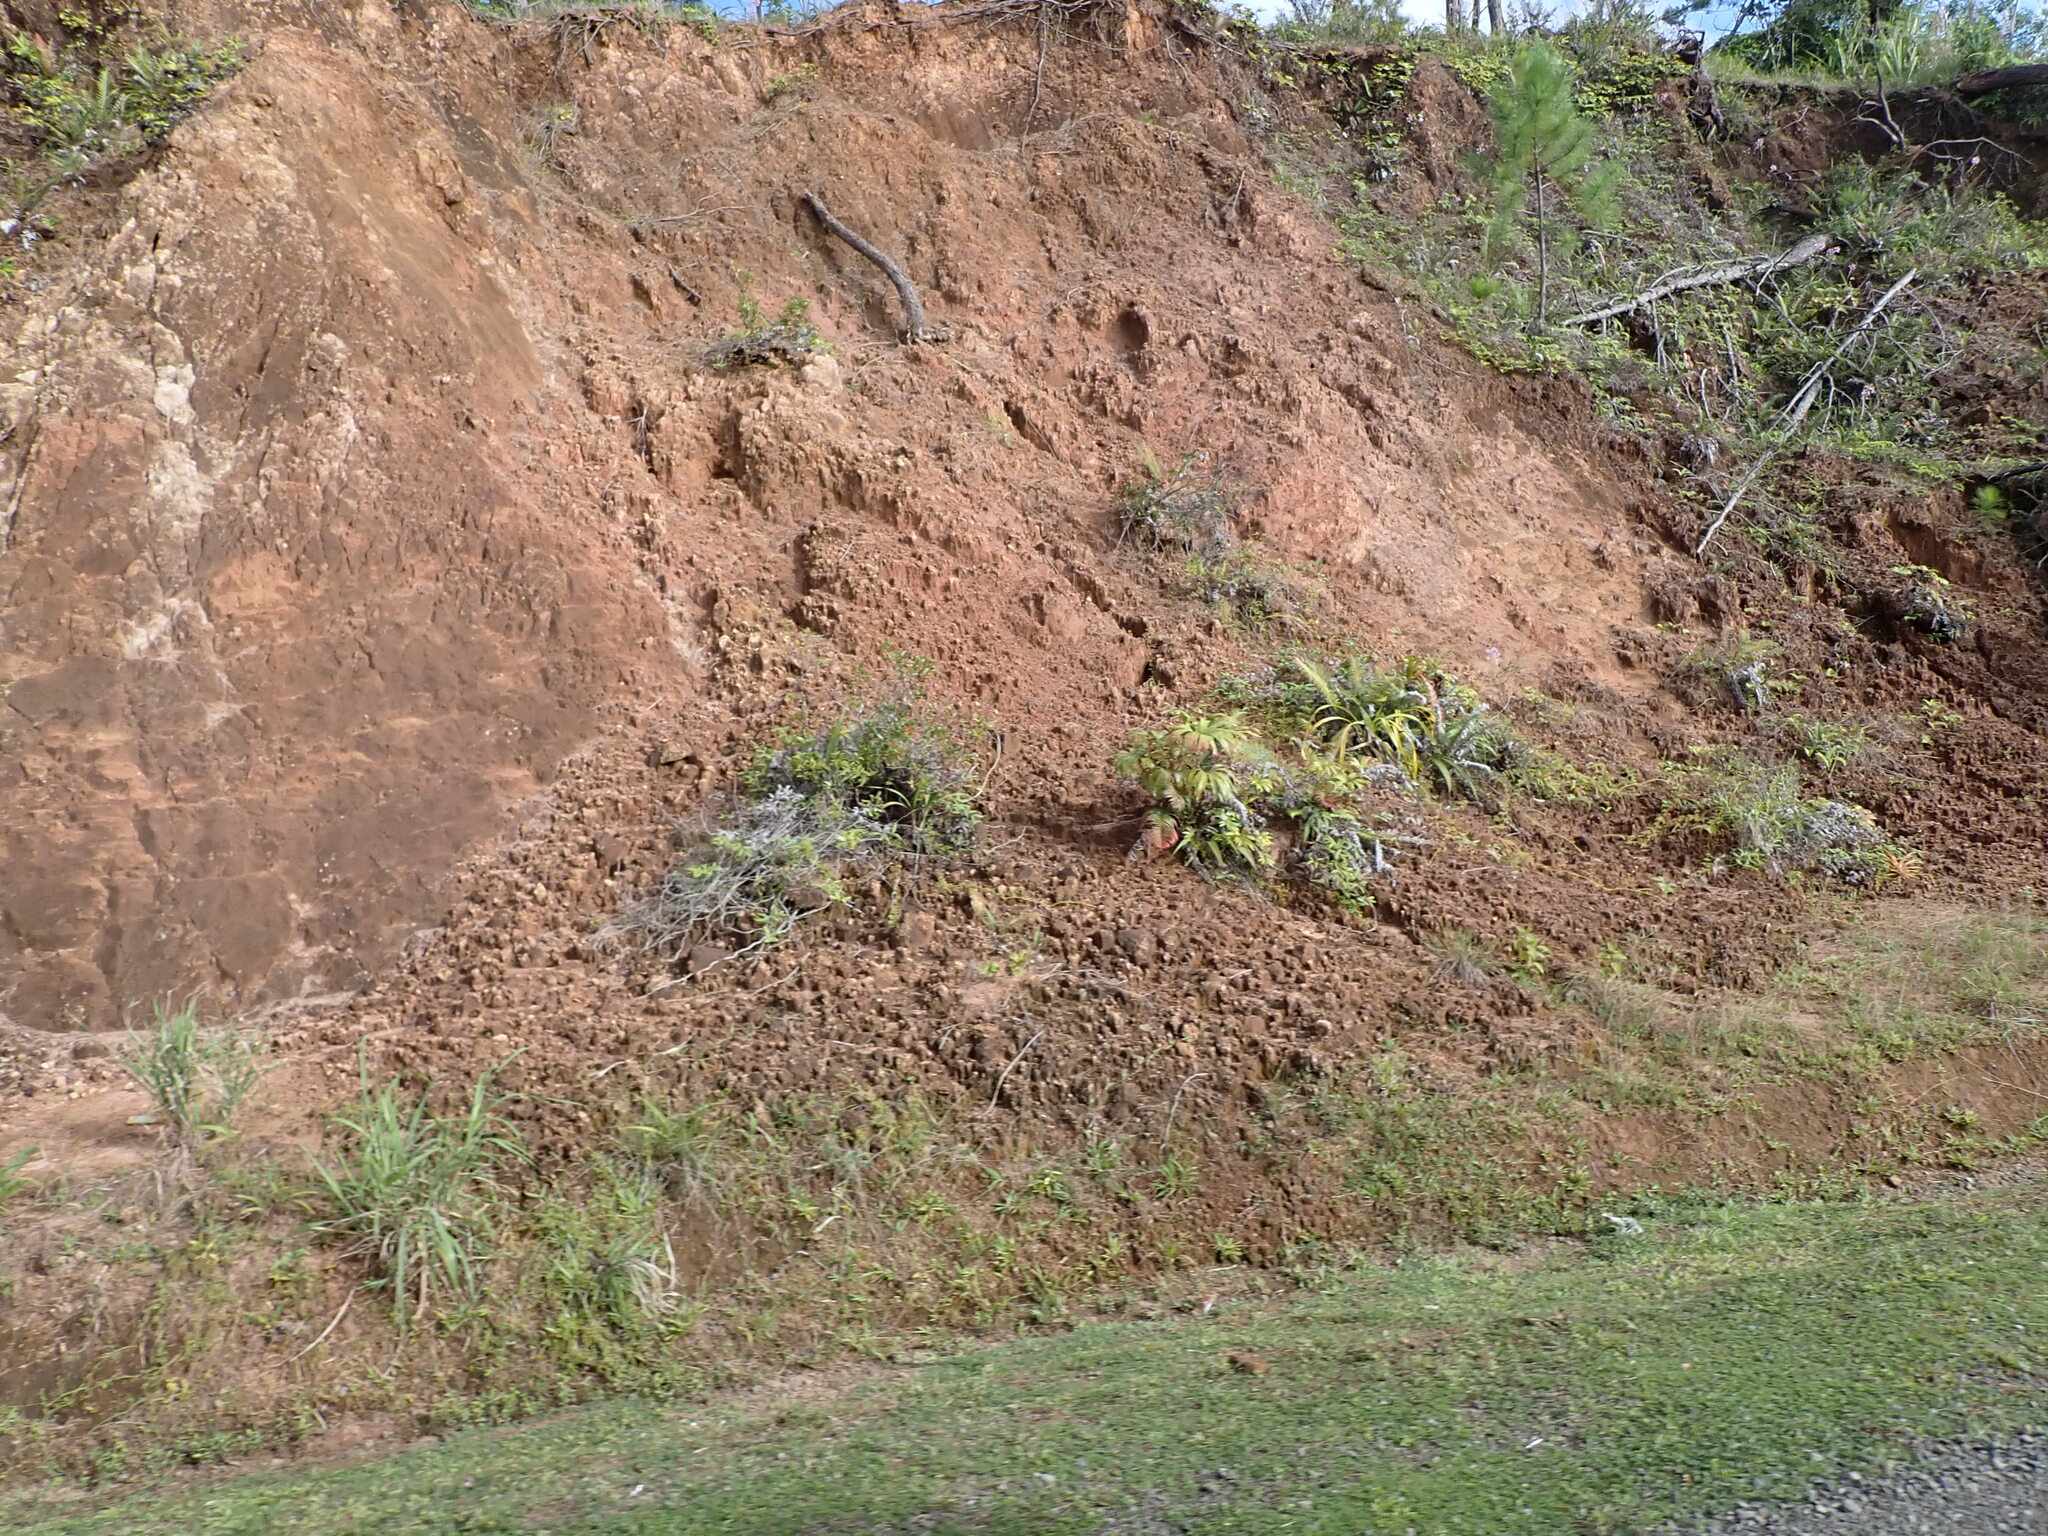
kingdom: Plantae
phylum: Tracheophyta
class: Polypodiopsida
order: Gleicheniales
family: Dipteridaceae
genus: Dipteris
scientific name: Dipteris conjugata
